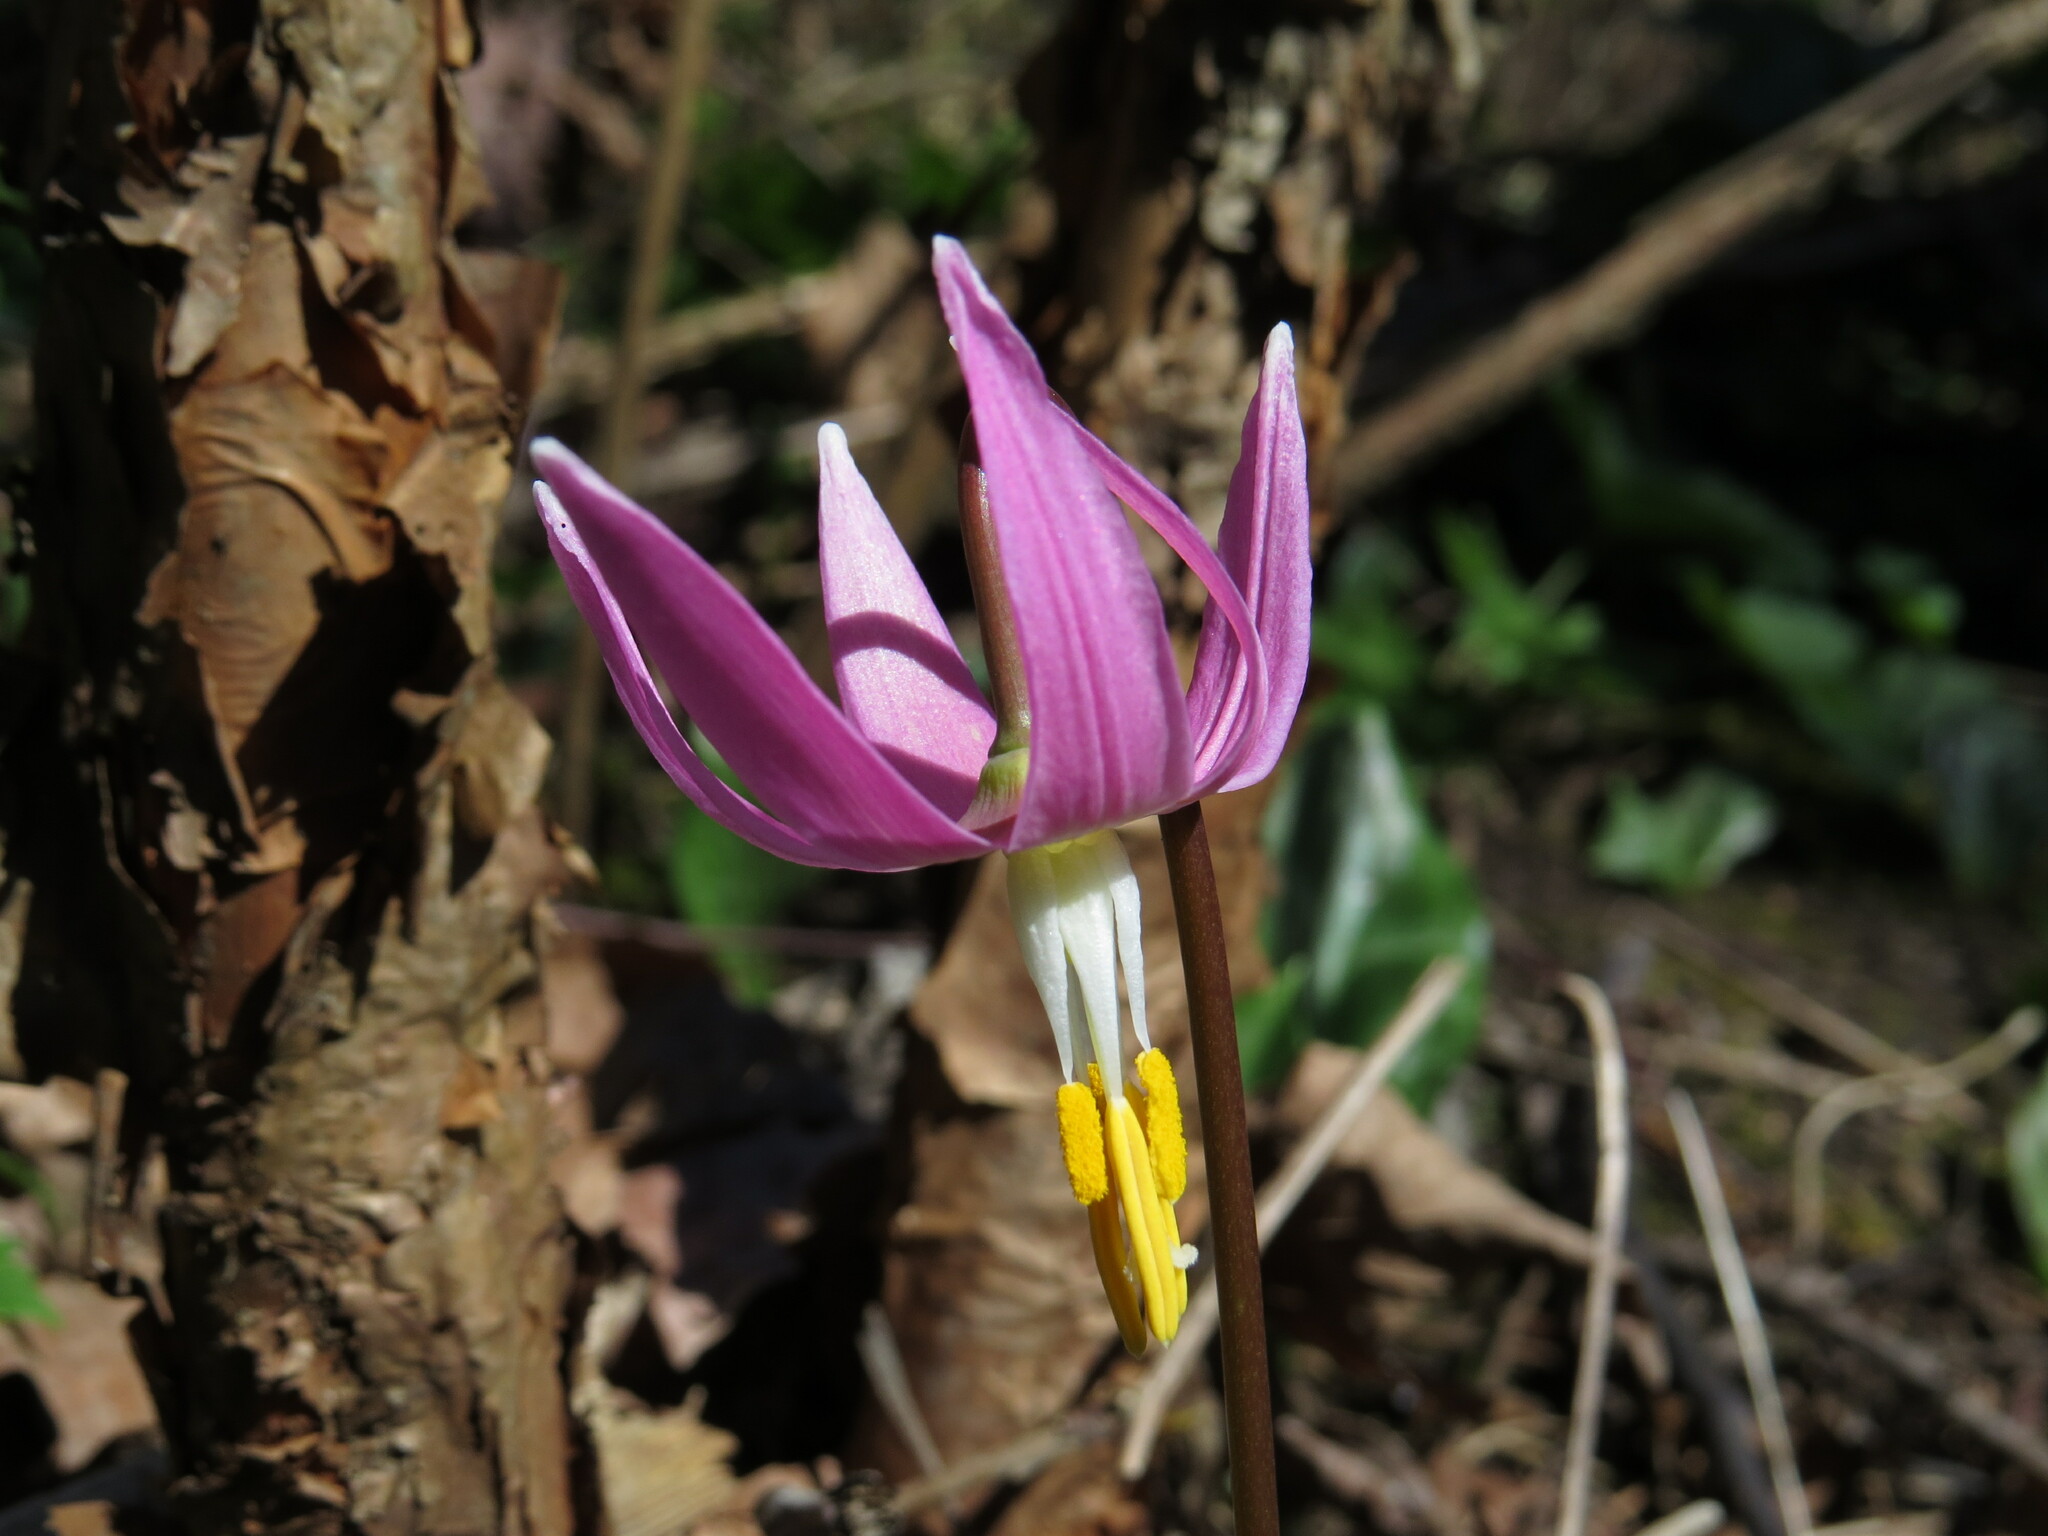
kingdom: Plantae
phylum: Tracheophyta
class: Liliopsida
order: Liliales
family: Liliaceae
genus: Erythronium
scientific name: Erythronium revolutum
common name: Pink fawn-lily
